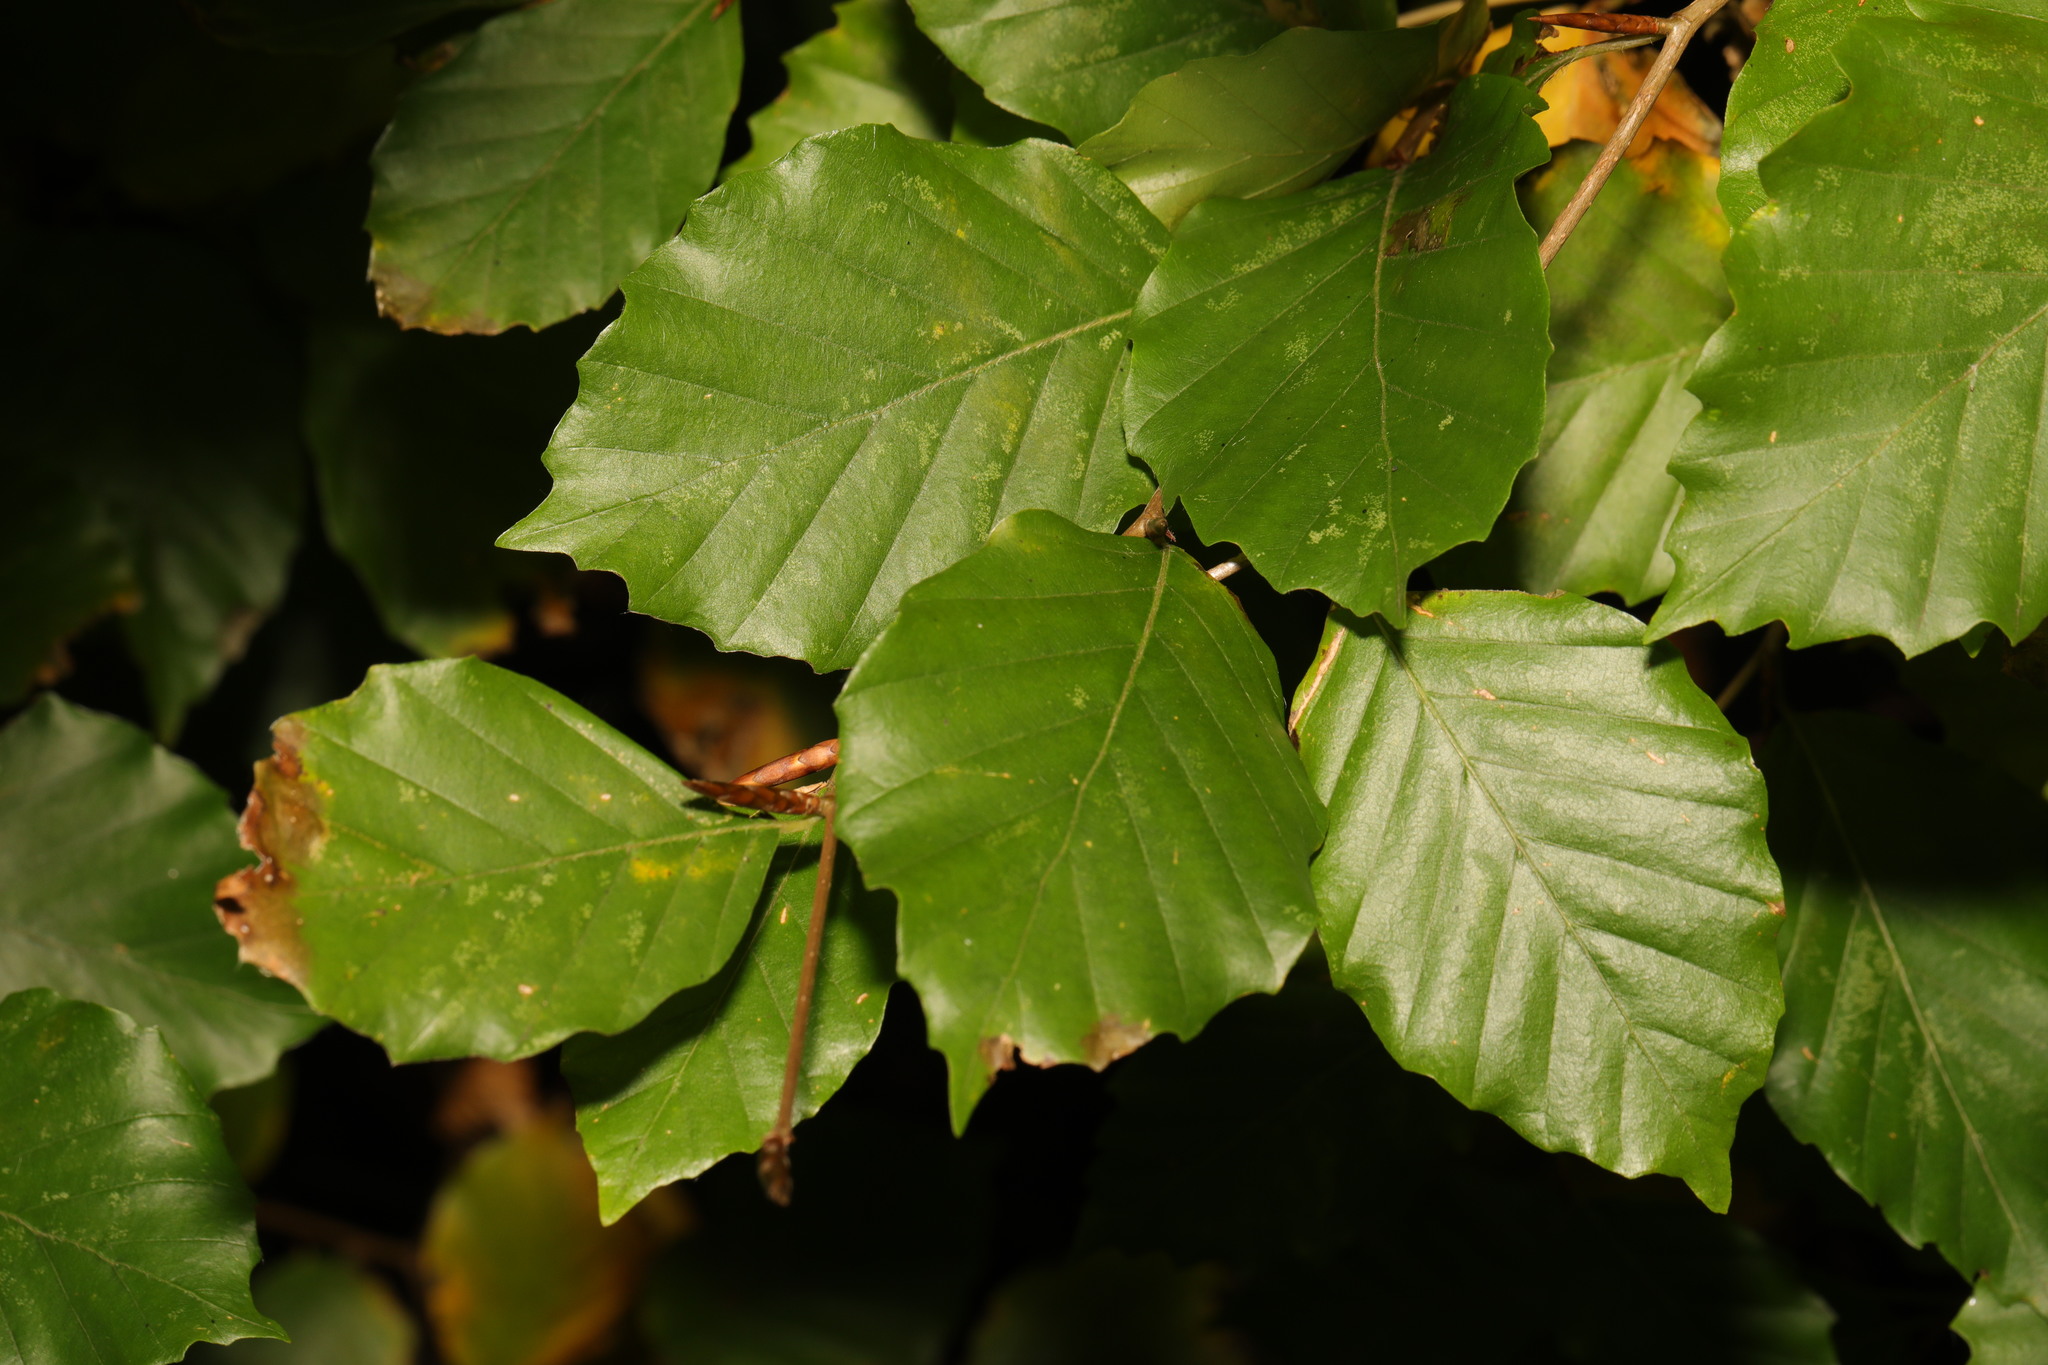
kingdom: Plantae
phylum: Tracheophyta
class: Magnoliopsida
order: Fagales
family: Fagaceae
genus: Fagus
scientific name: Fagus sylvatica
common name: Beech
